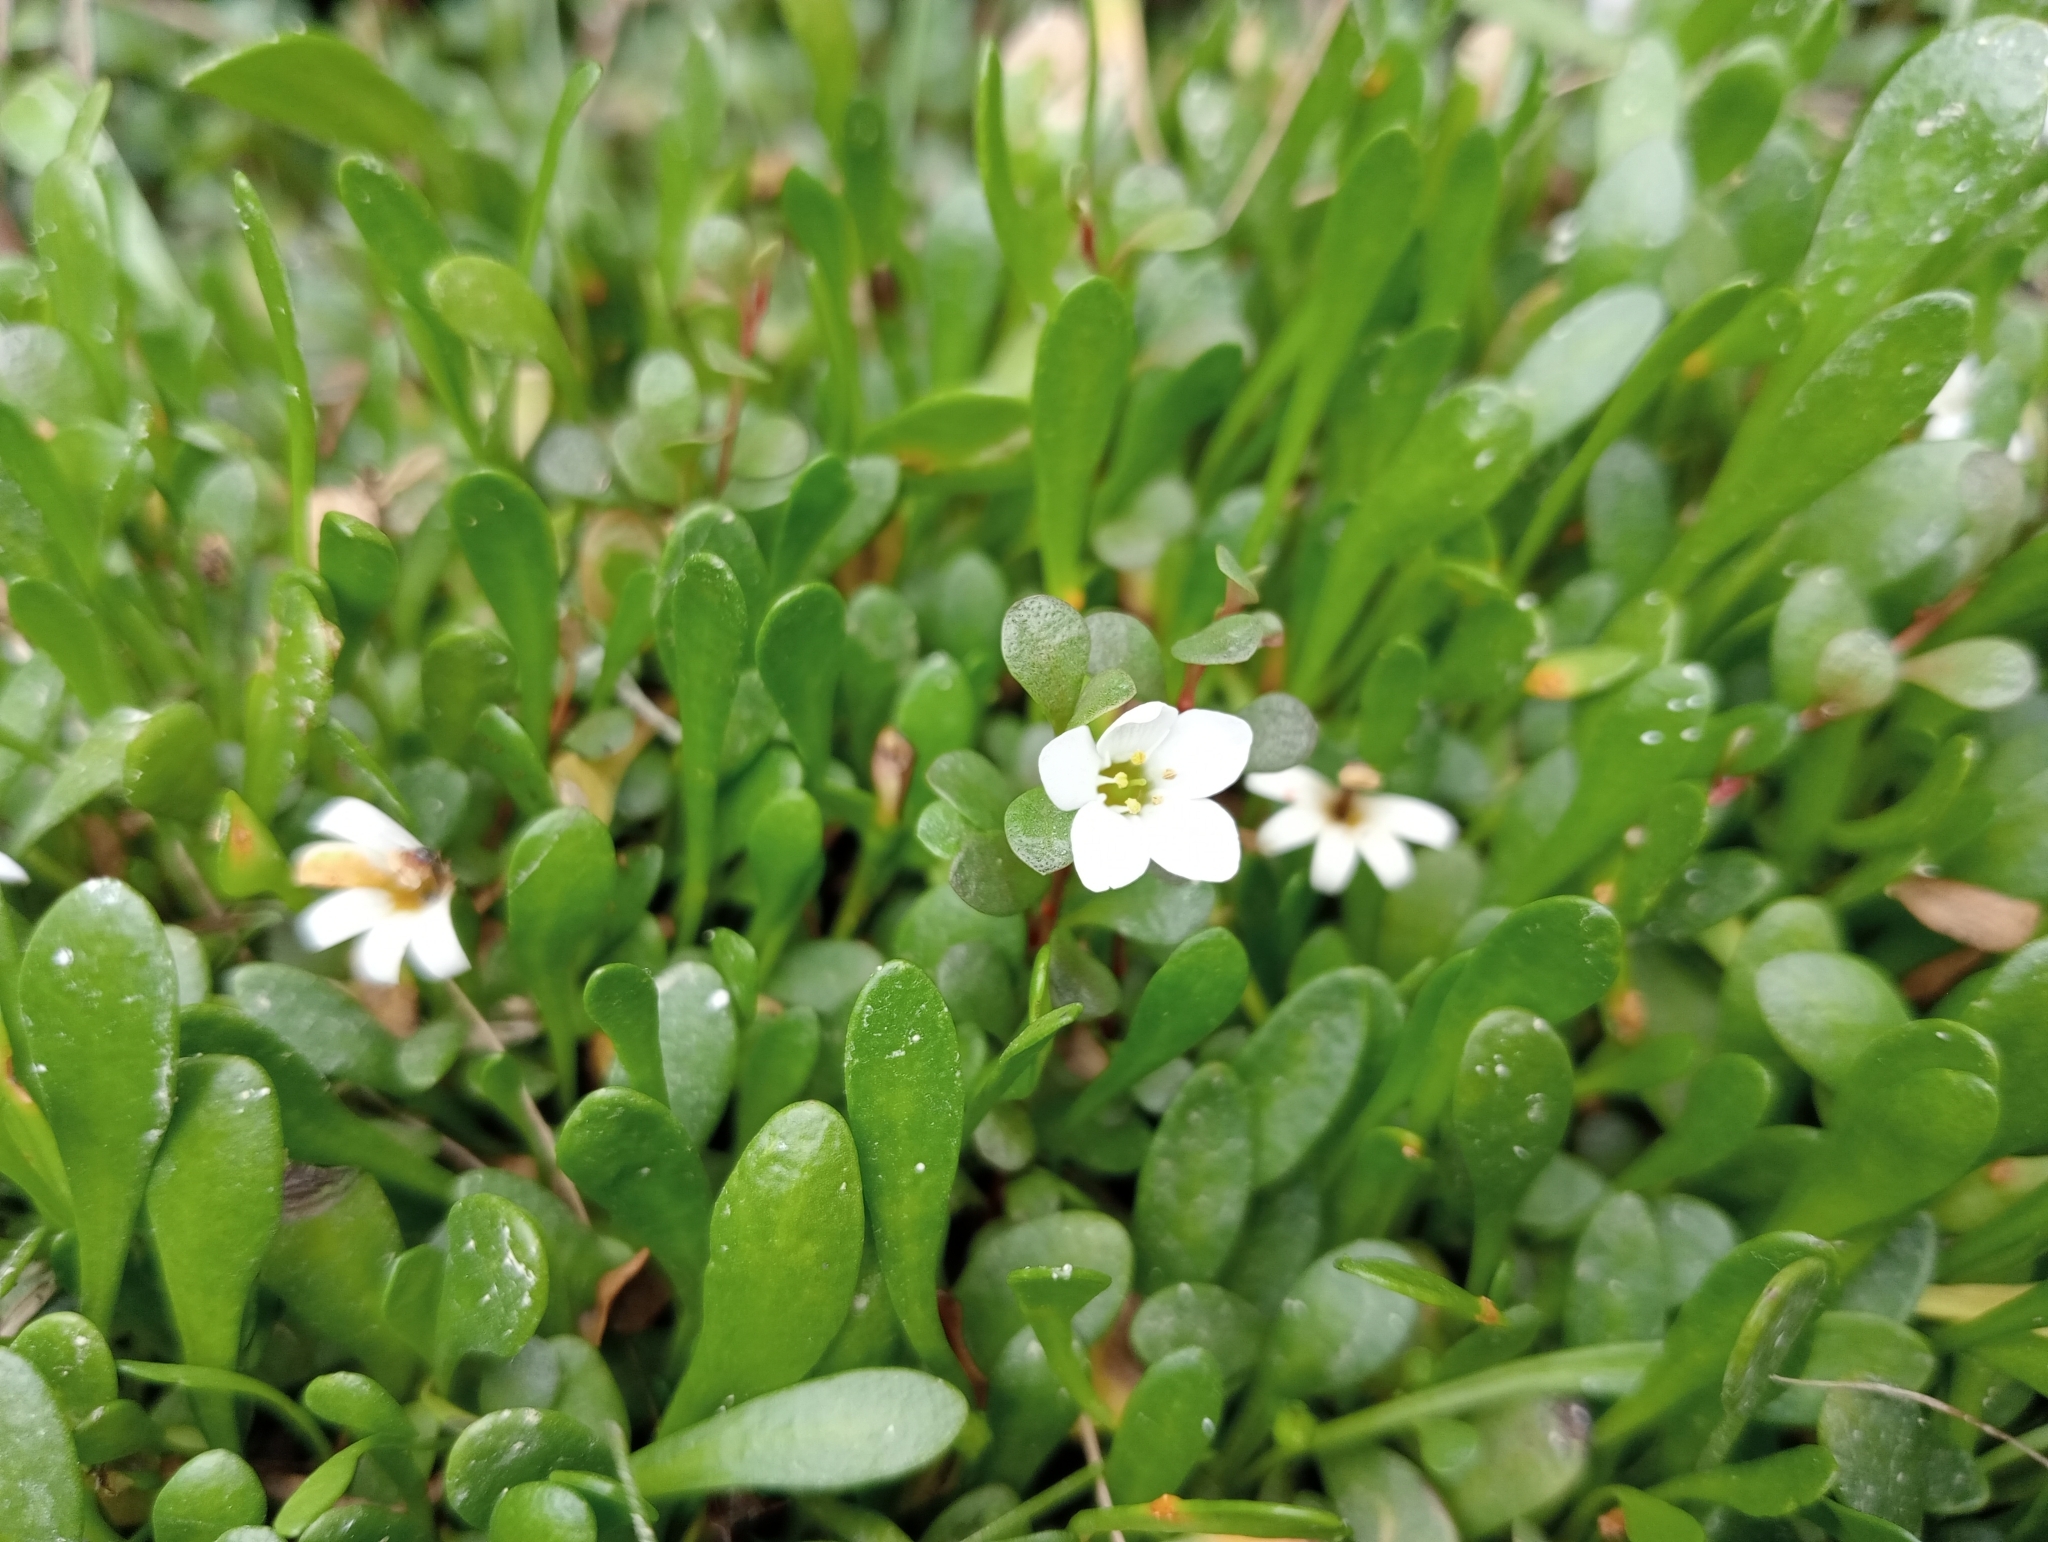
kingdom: Plantae
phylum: Tracheophyta
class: Magnoliopsida
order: Ericales
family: Primulaceae
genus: Samolus
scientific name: Samolus repens
